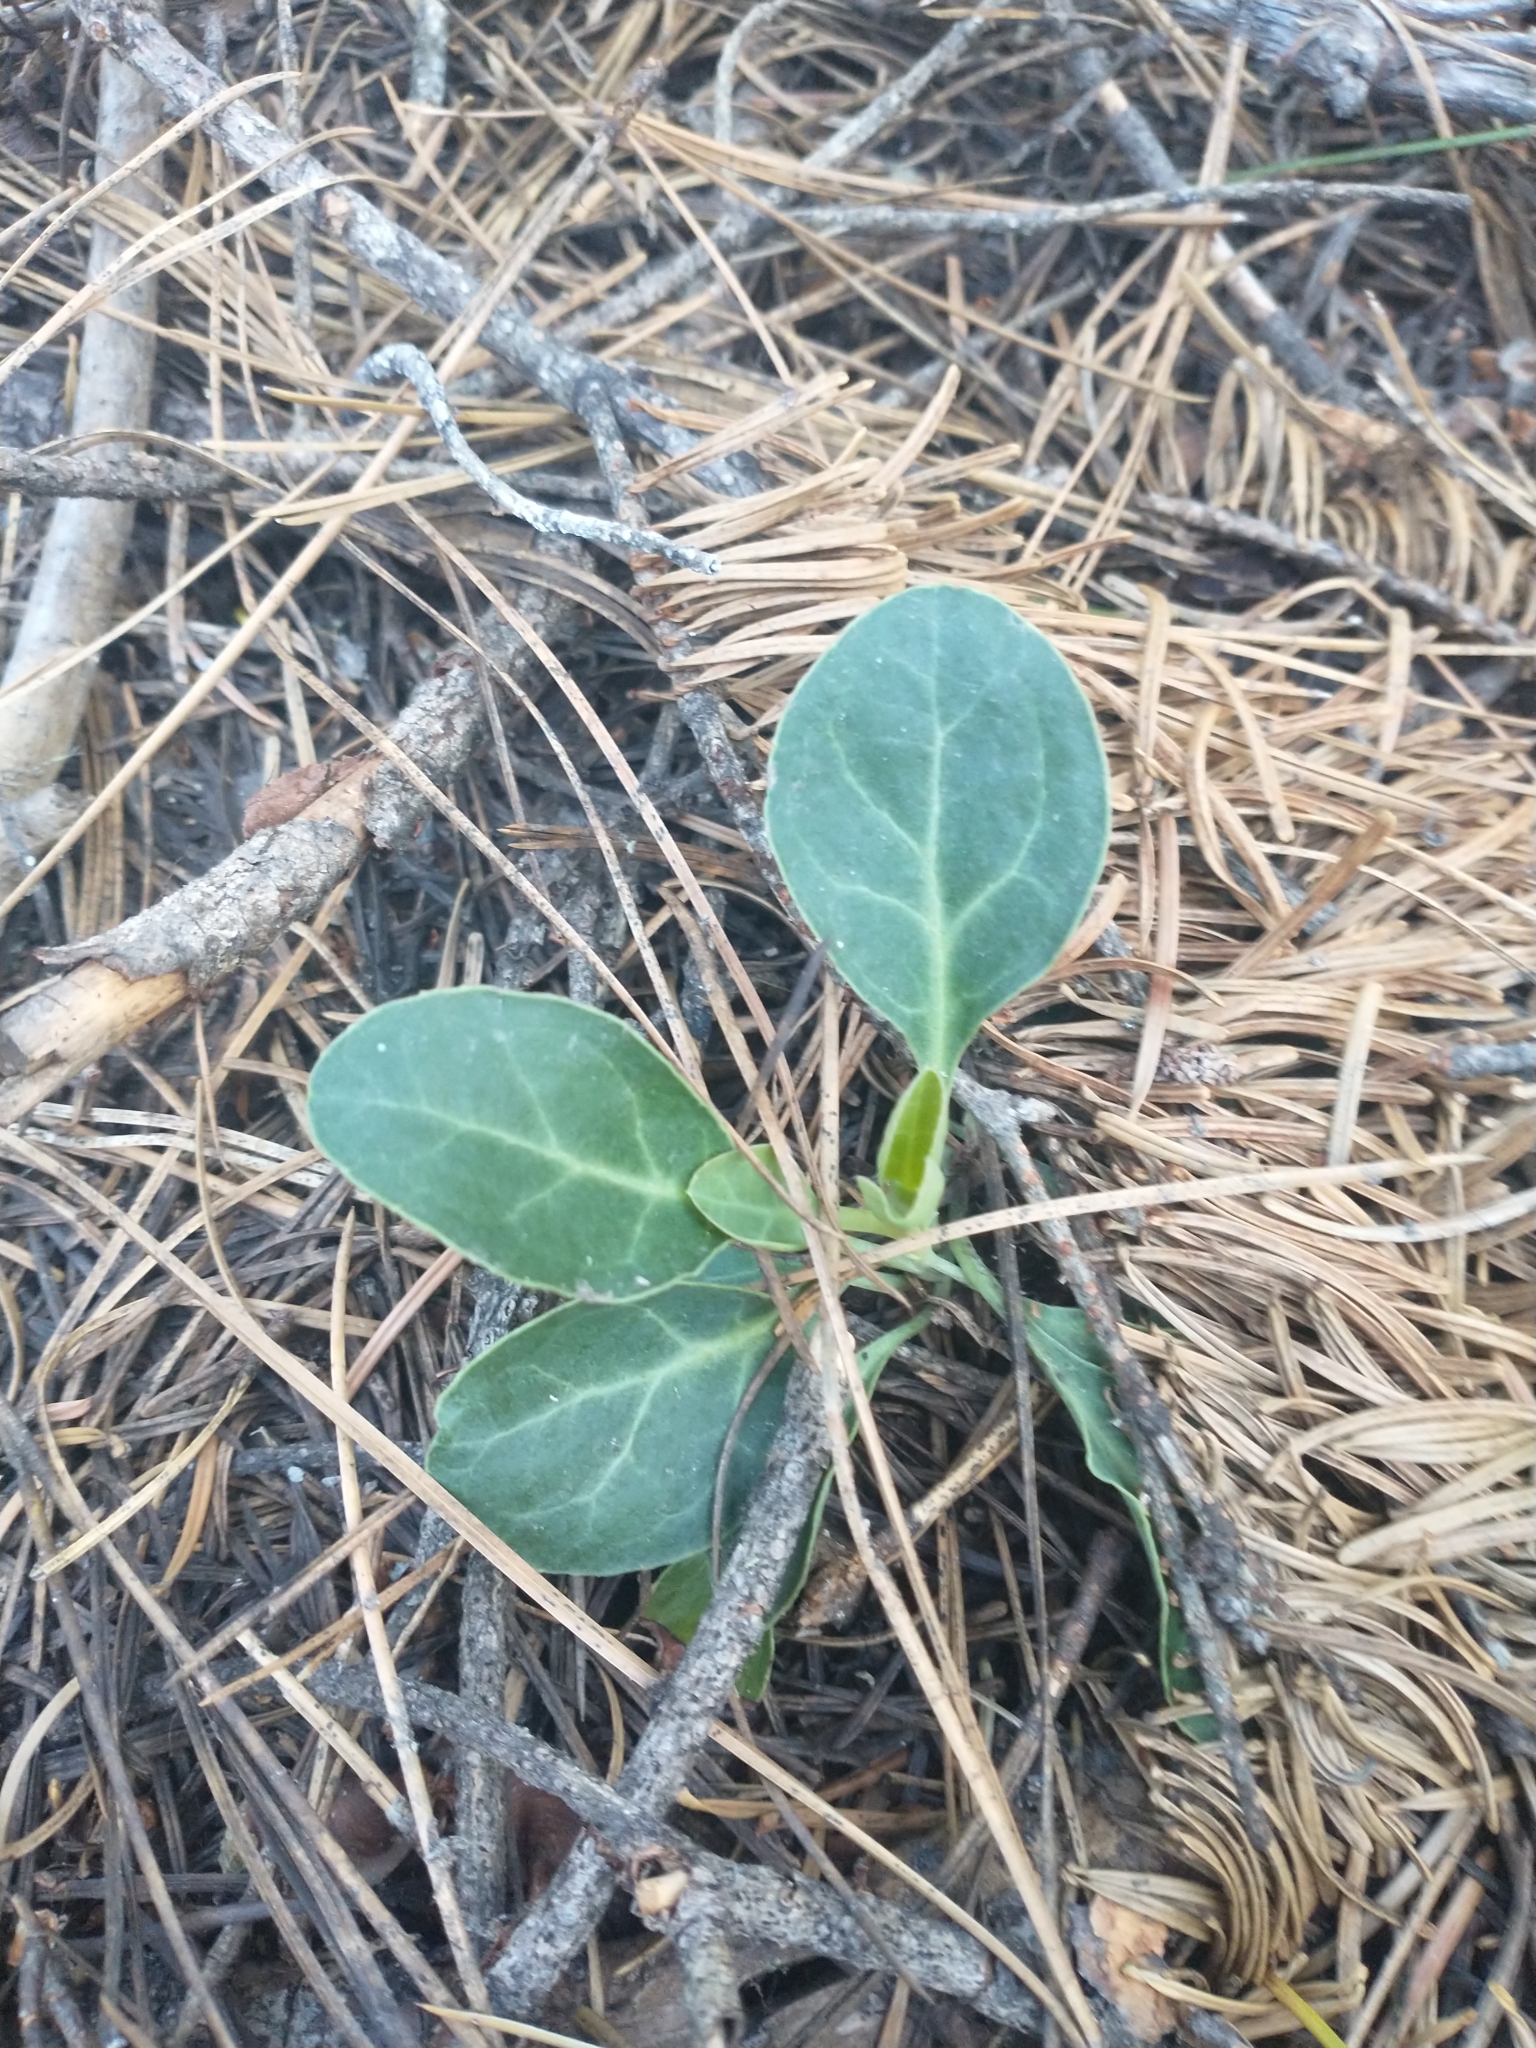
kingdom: Plantae
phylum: Tracheophyta
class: Magnoliopsida
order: Ericales
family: Ericaceae
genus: Pyrola
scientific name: Pyrola dentata
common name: Tooth-leaved wintergreen
